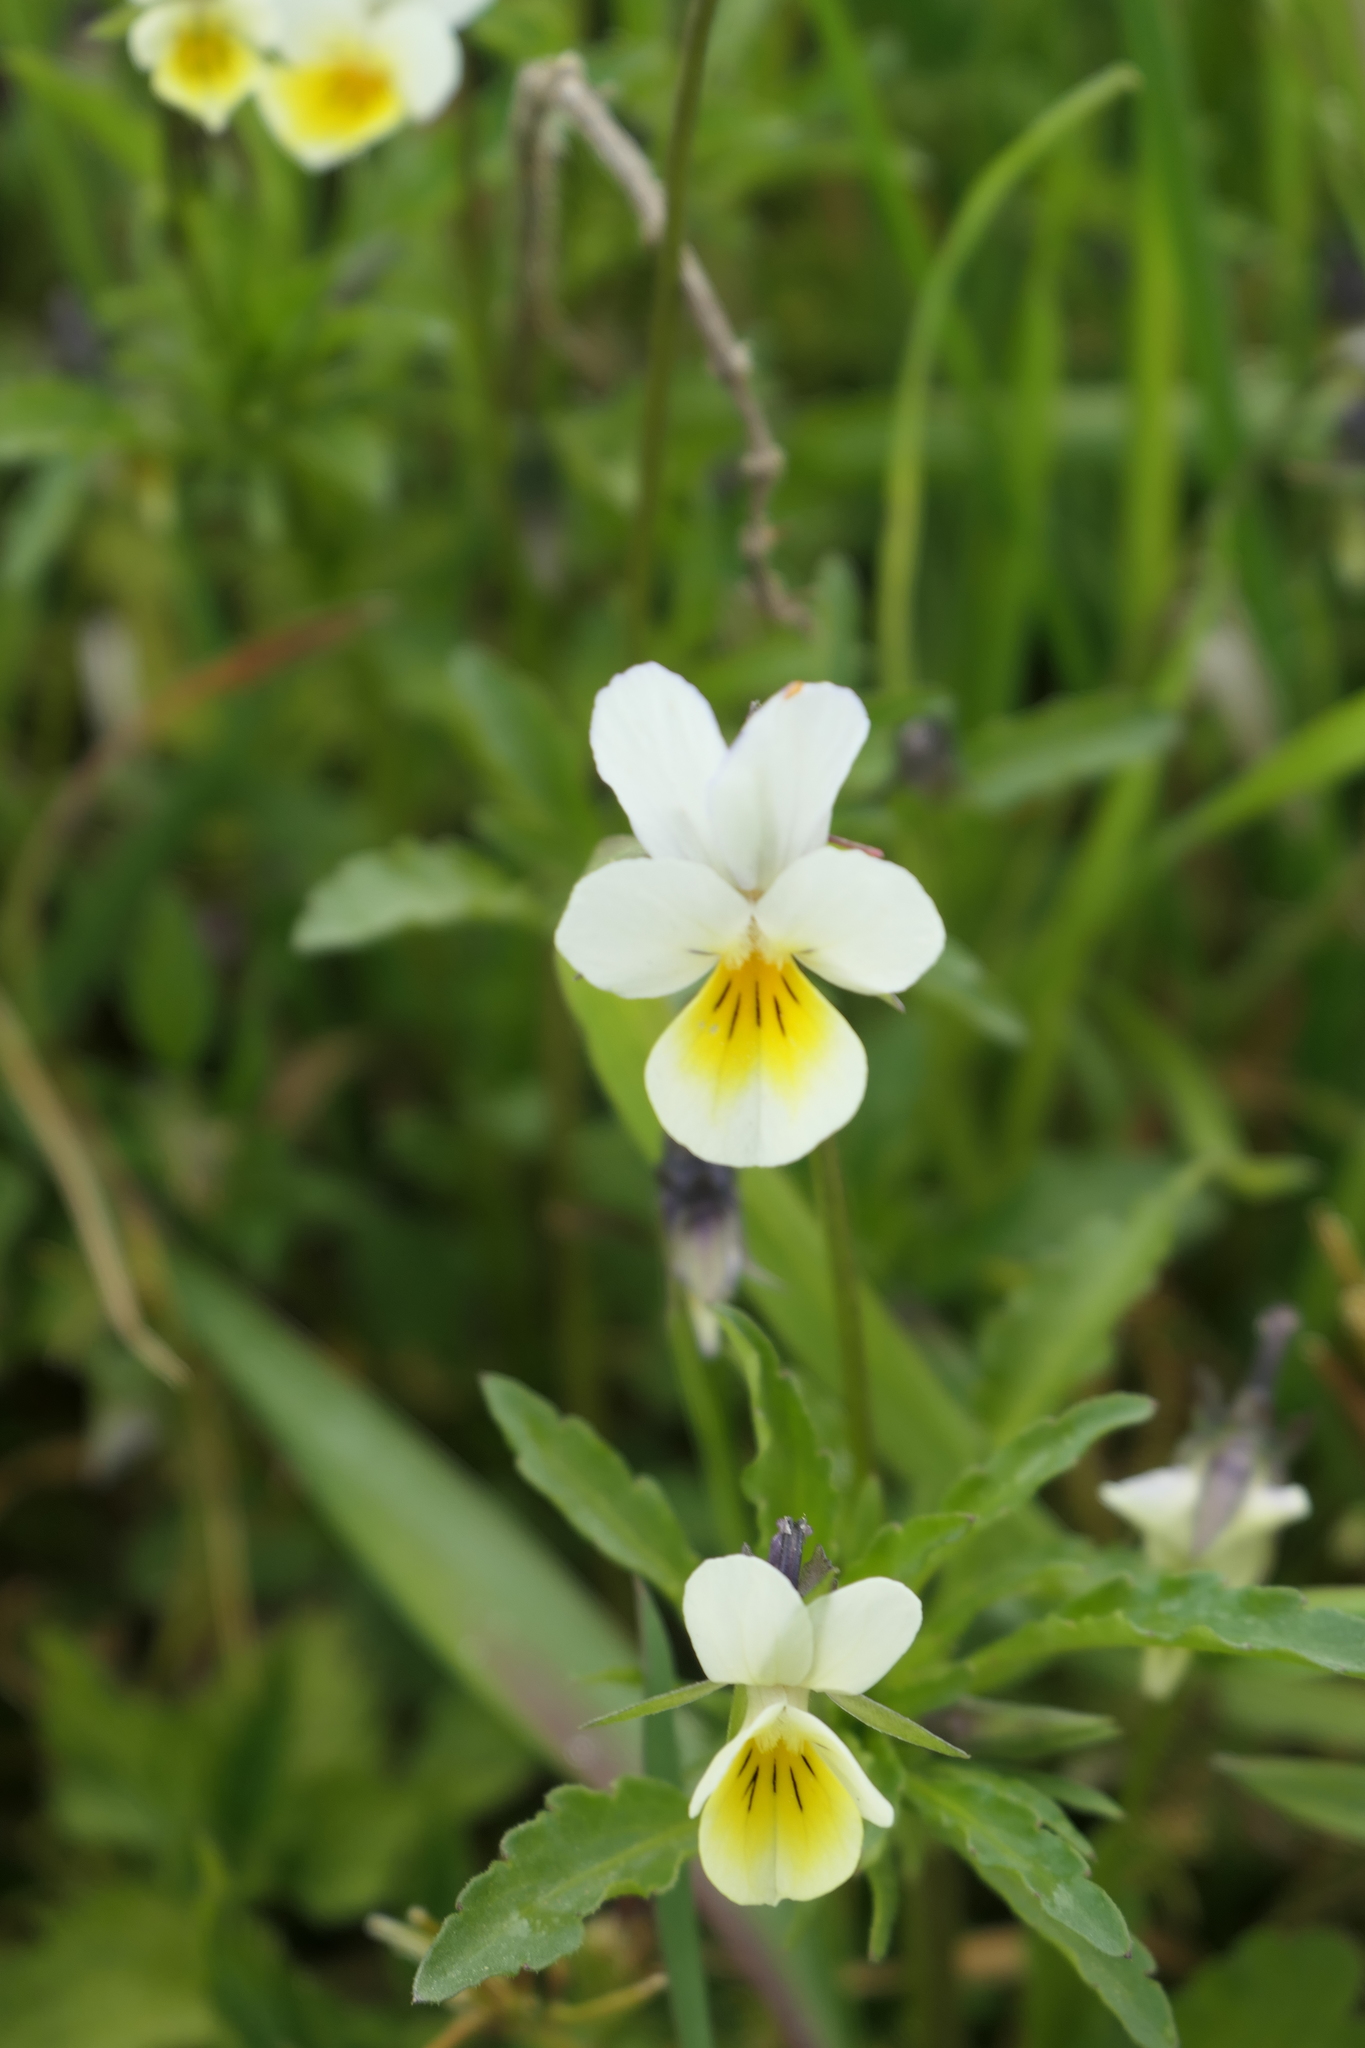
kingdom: Plantae
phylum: Tracheophyta
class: Magnoliopsida
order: Malpighiales
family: Violaceae
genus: Viola
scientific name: Viola arvensis
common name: Field pansy
